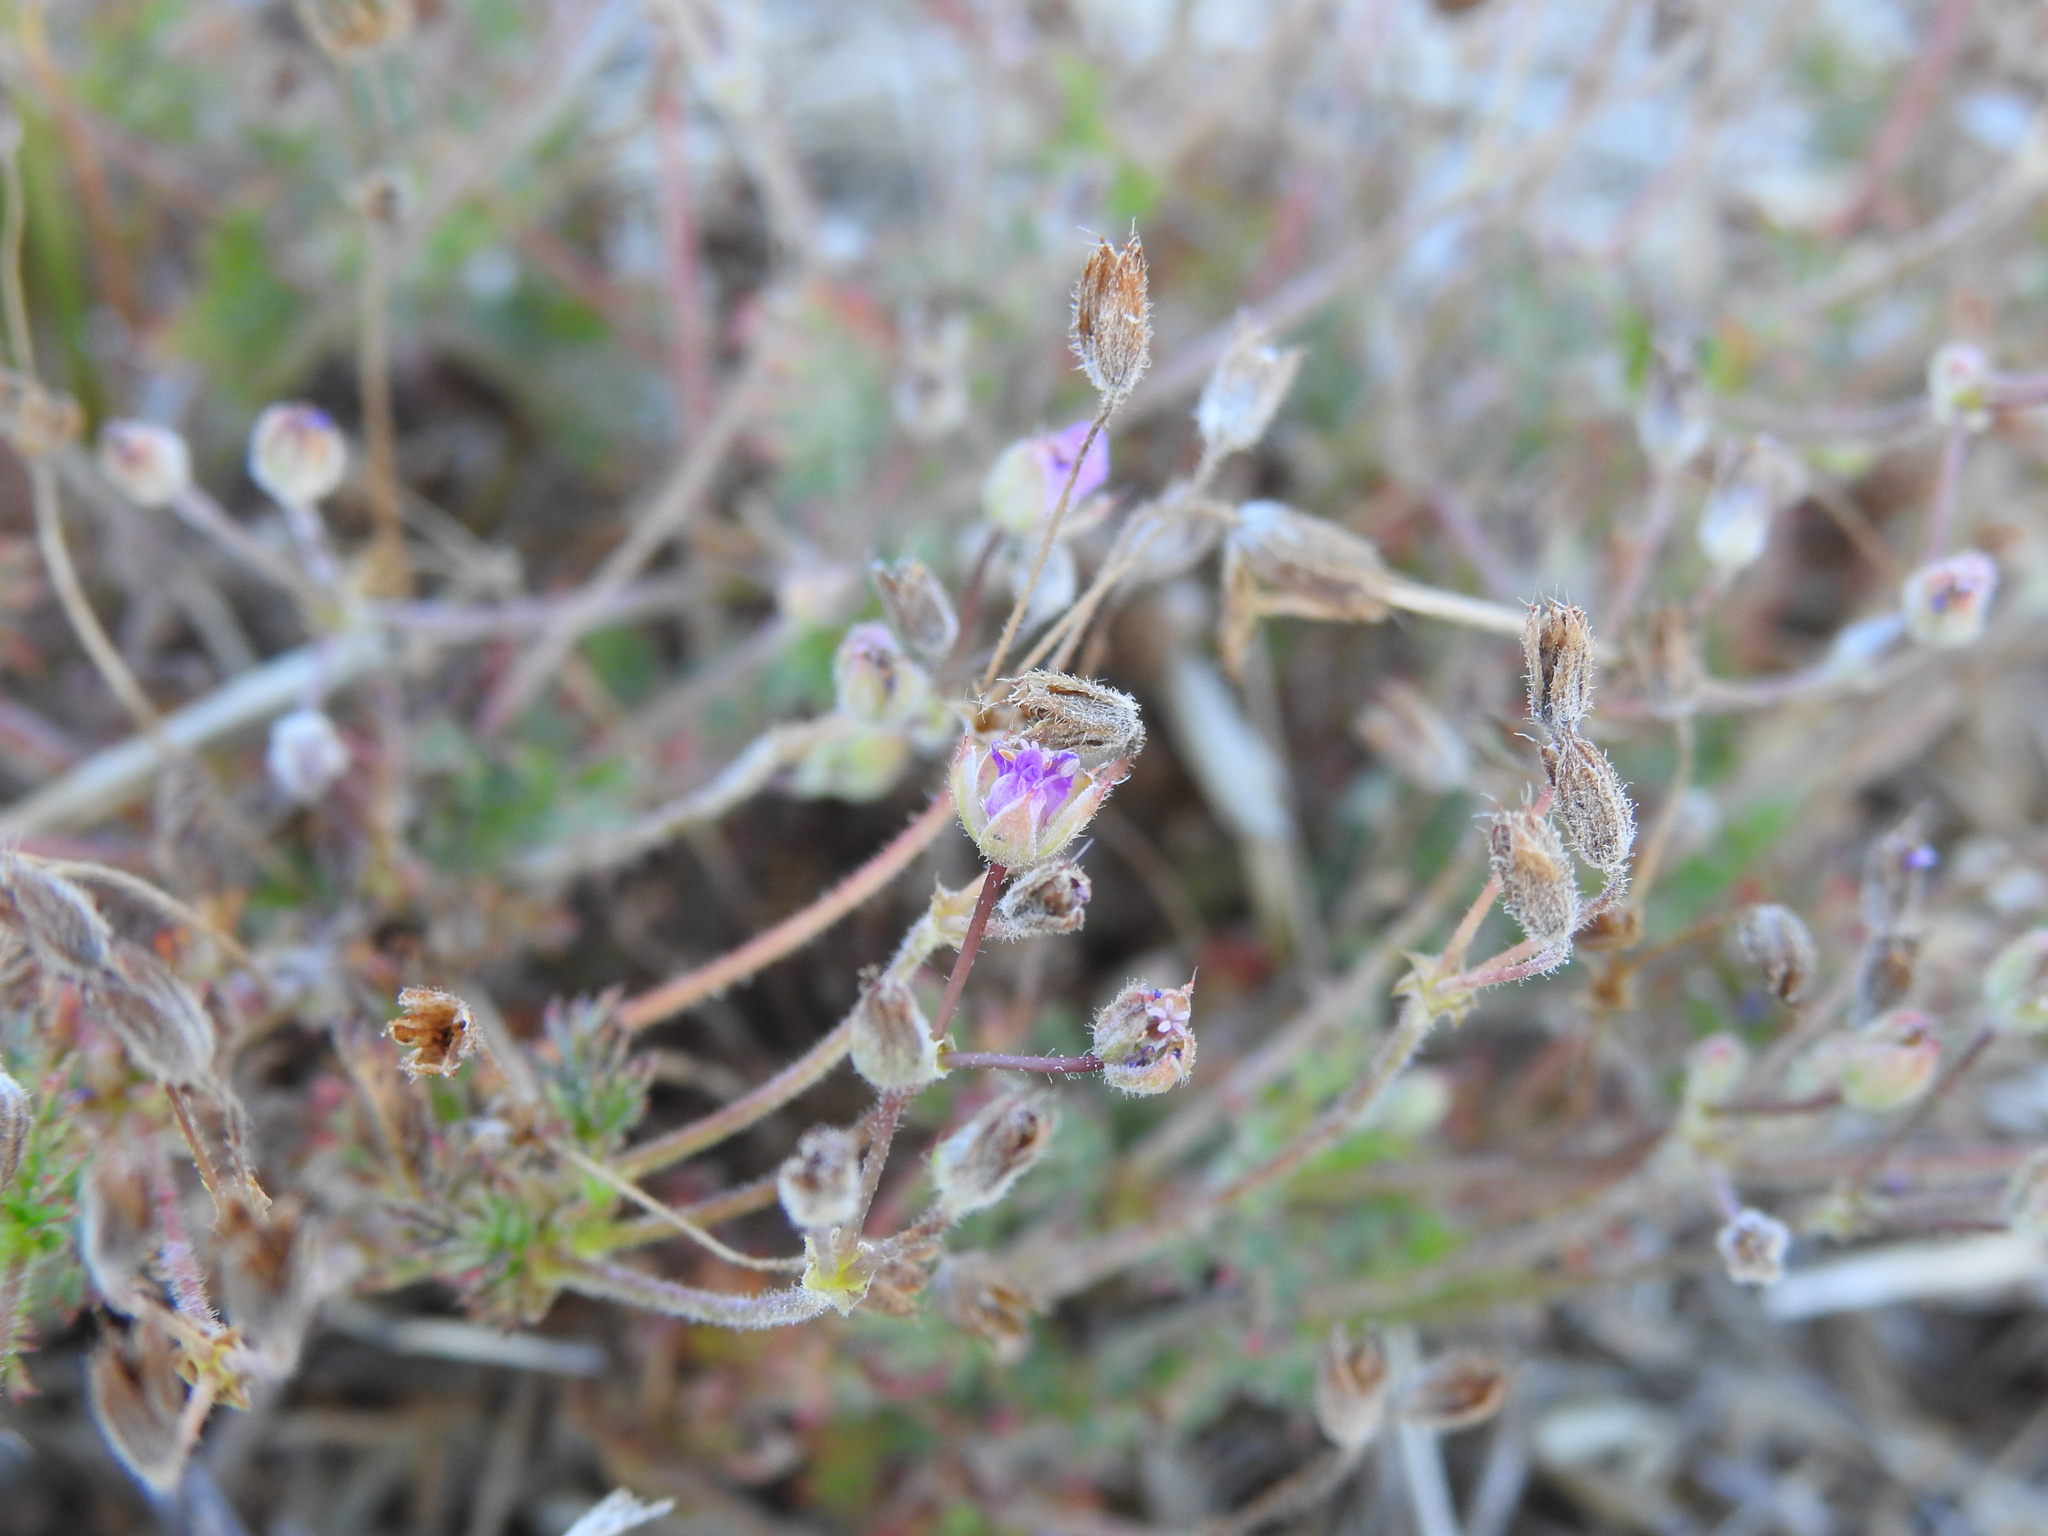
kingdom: Plantae
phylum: Tracheophyta
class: Magnoliopsida
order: Geraniales
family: Geraniaceae
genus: Erodium
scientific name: Erodium cicutarium
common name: Common stork's-bill
